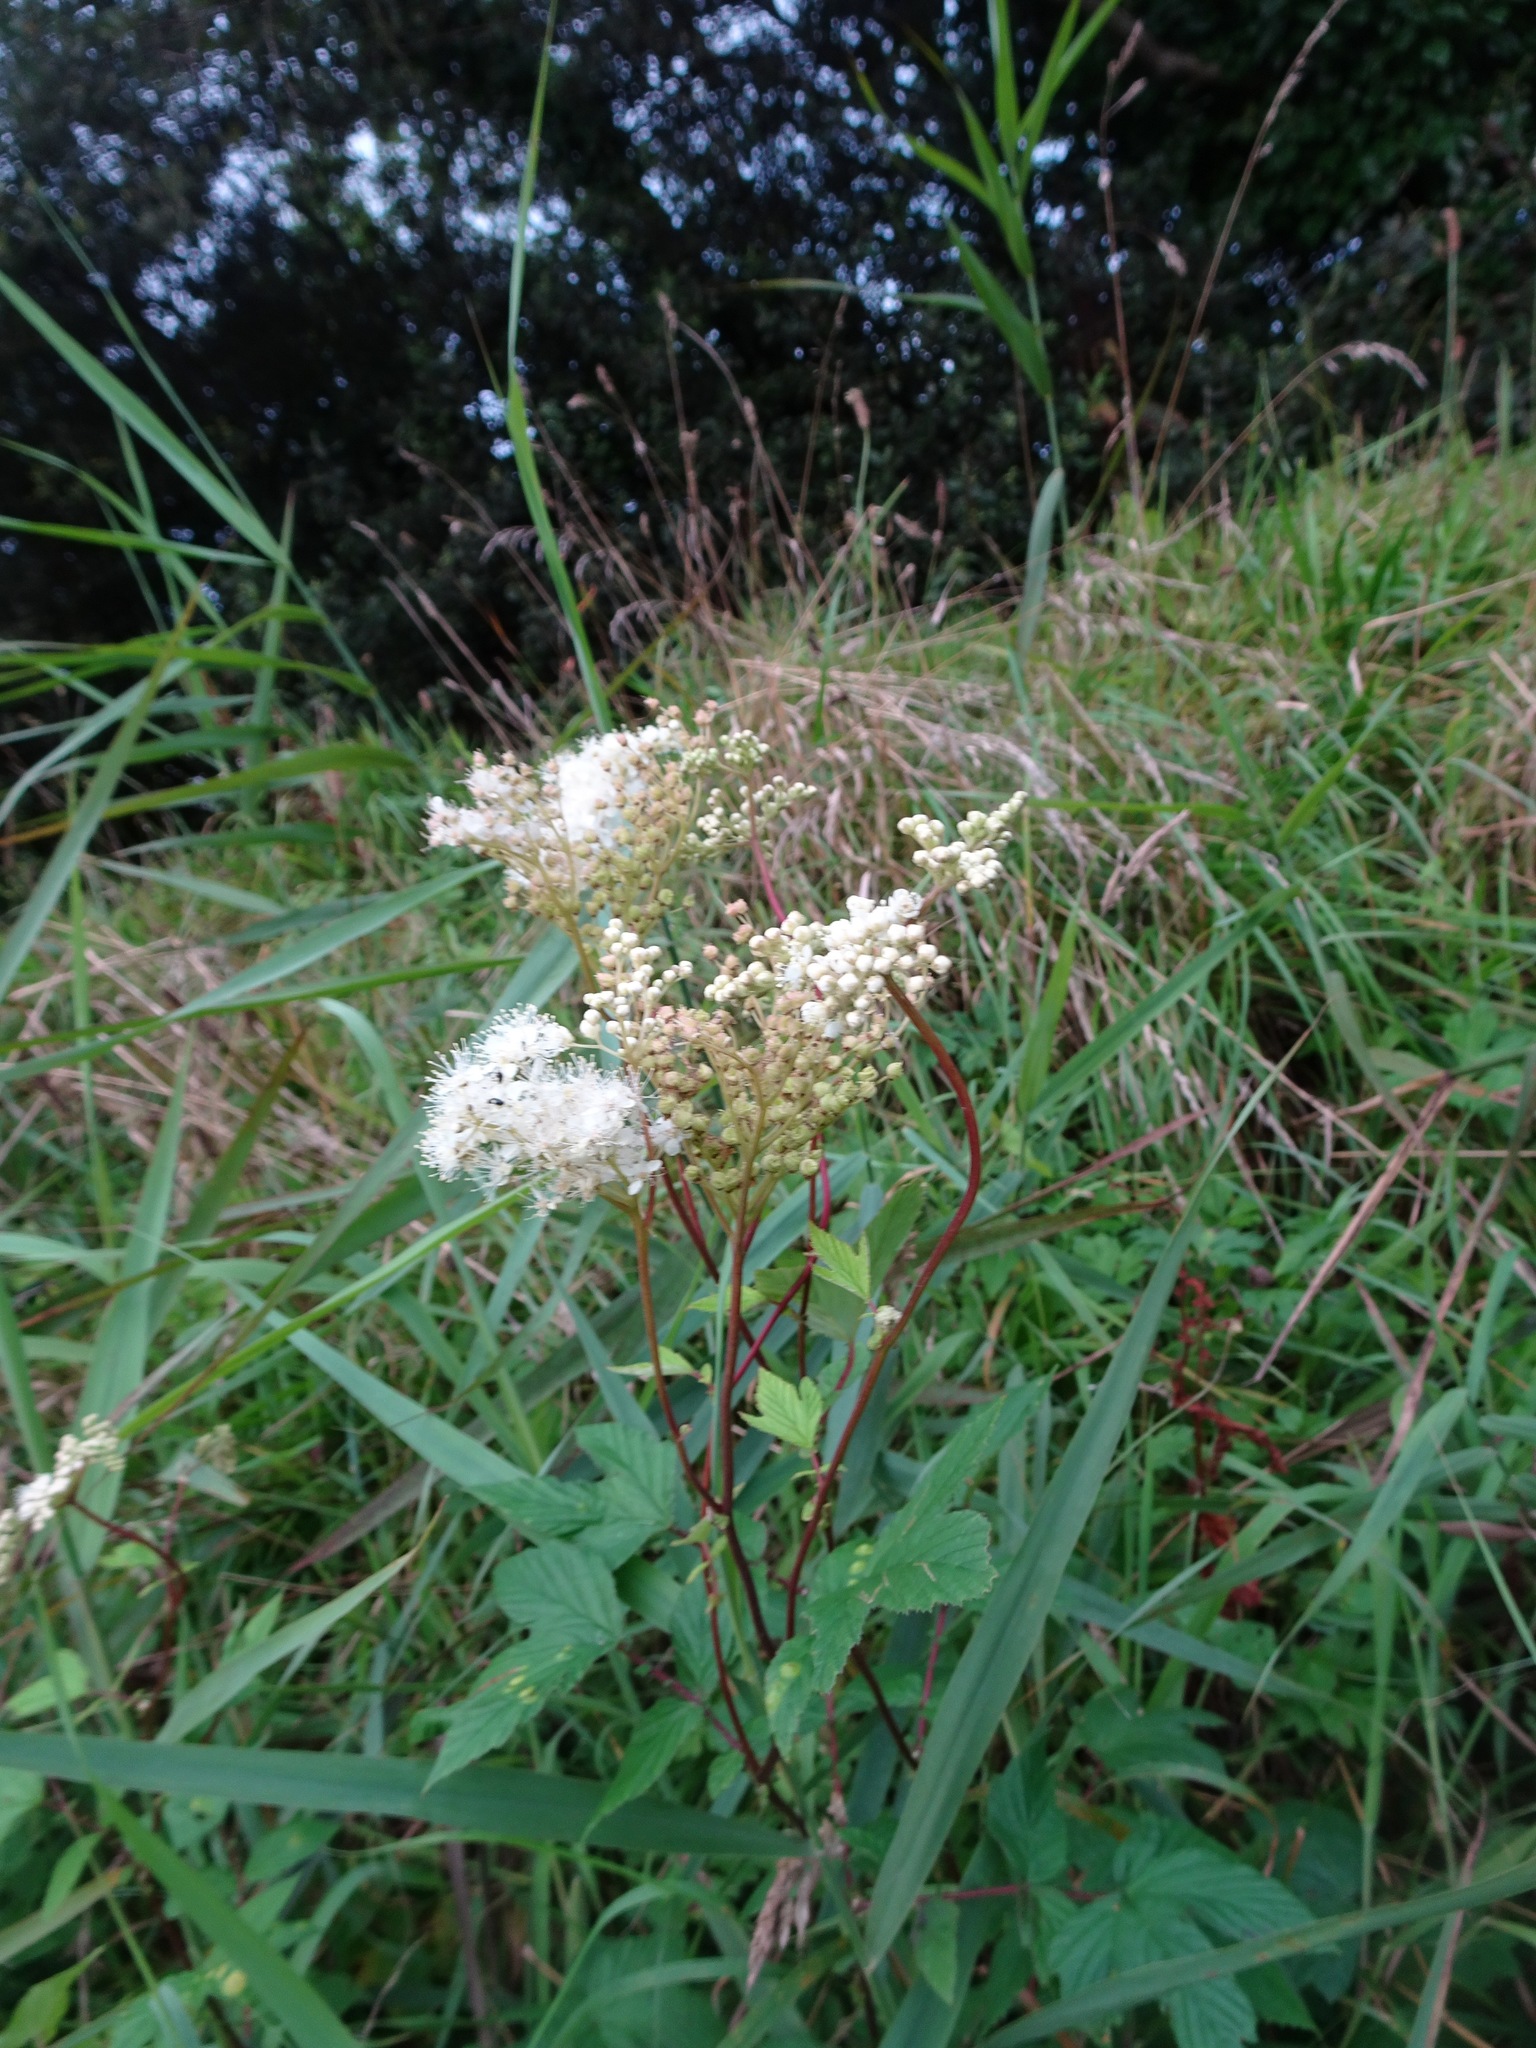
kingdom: Plantae
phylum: Tracheophyta
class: Magnoliopsida
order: Rosales
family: Rosaceae
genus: Filipendula
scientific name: Filipendula ulmaria
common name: Meadowsweet
